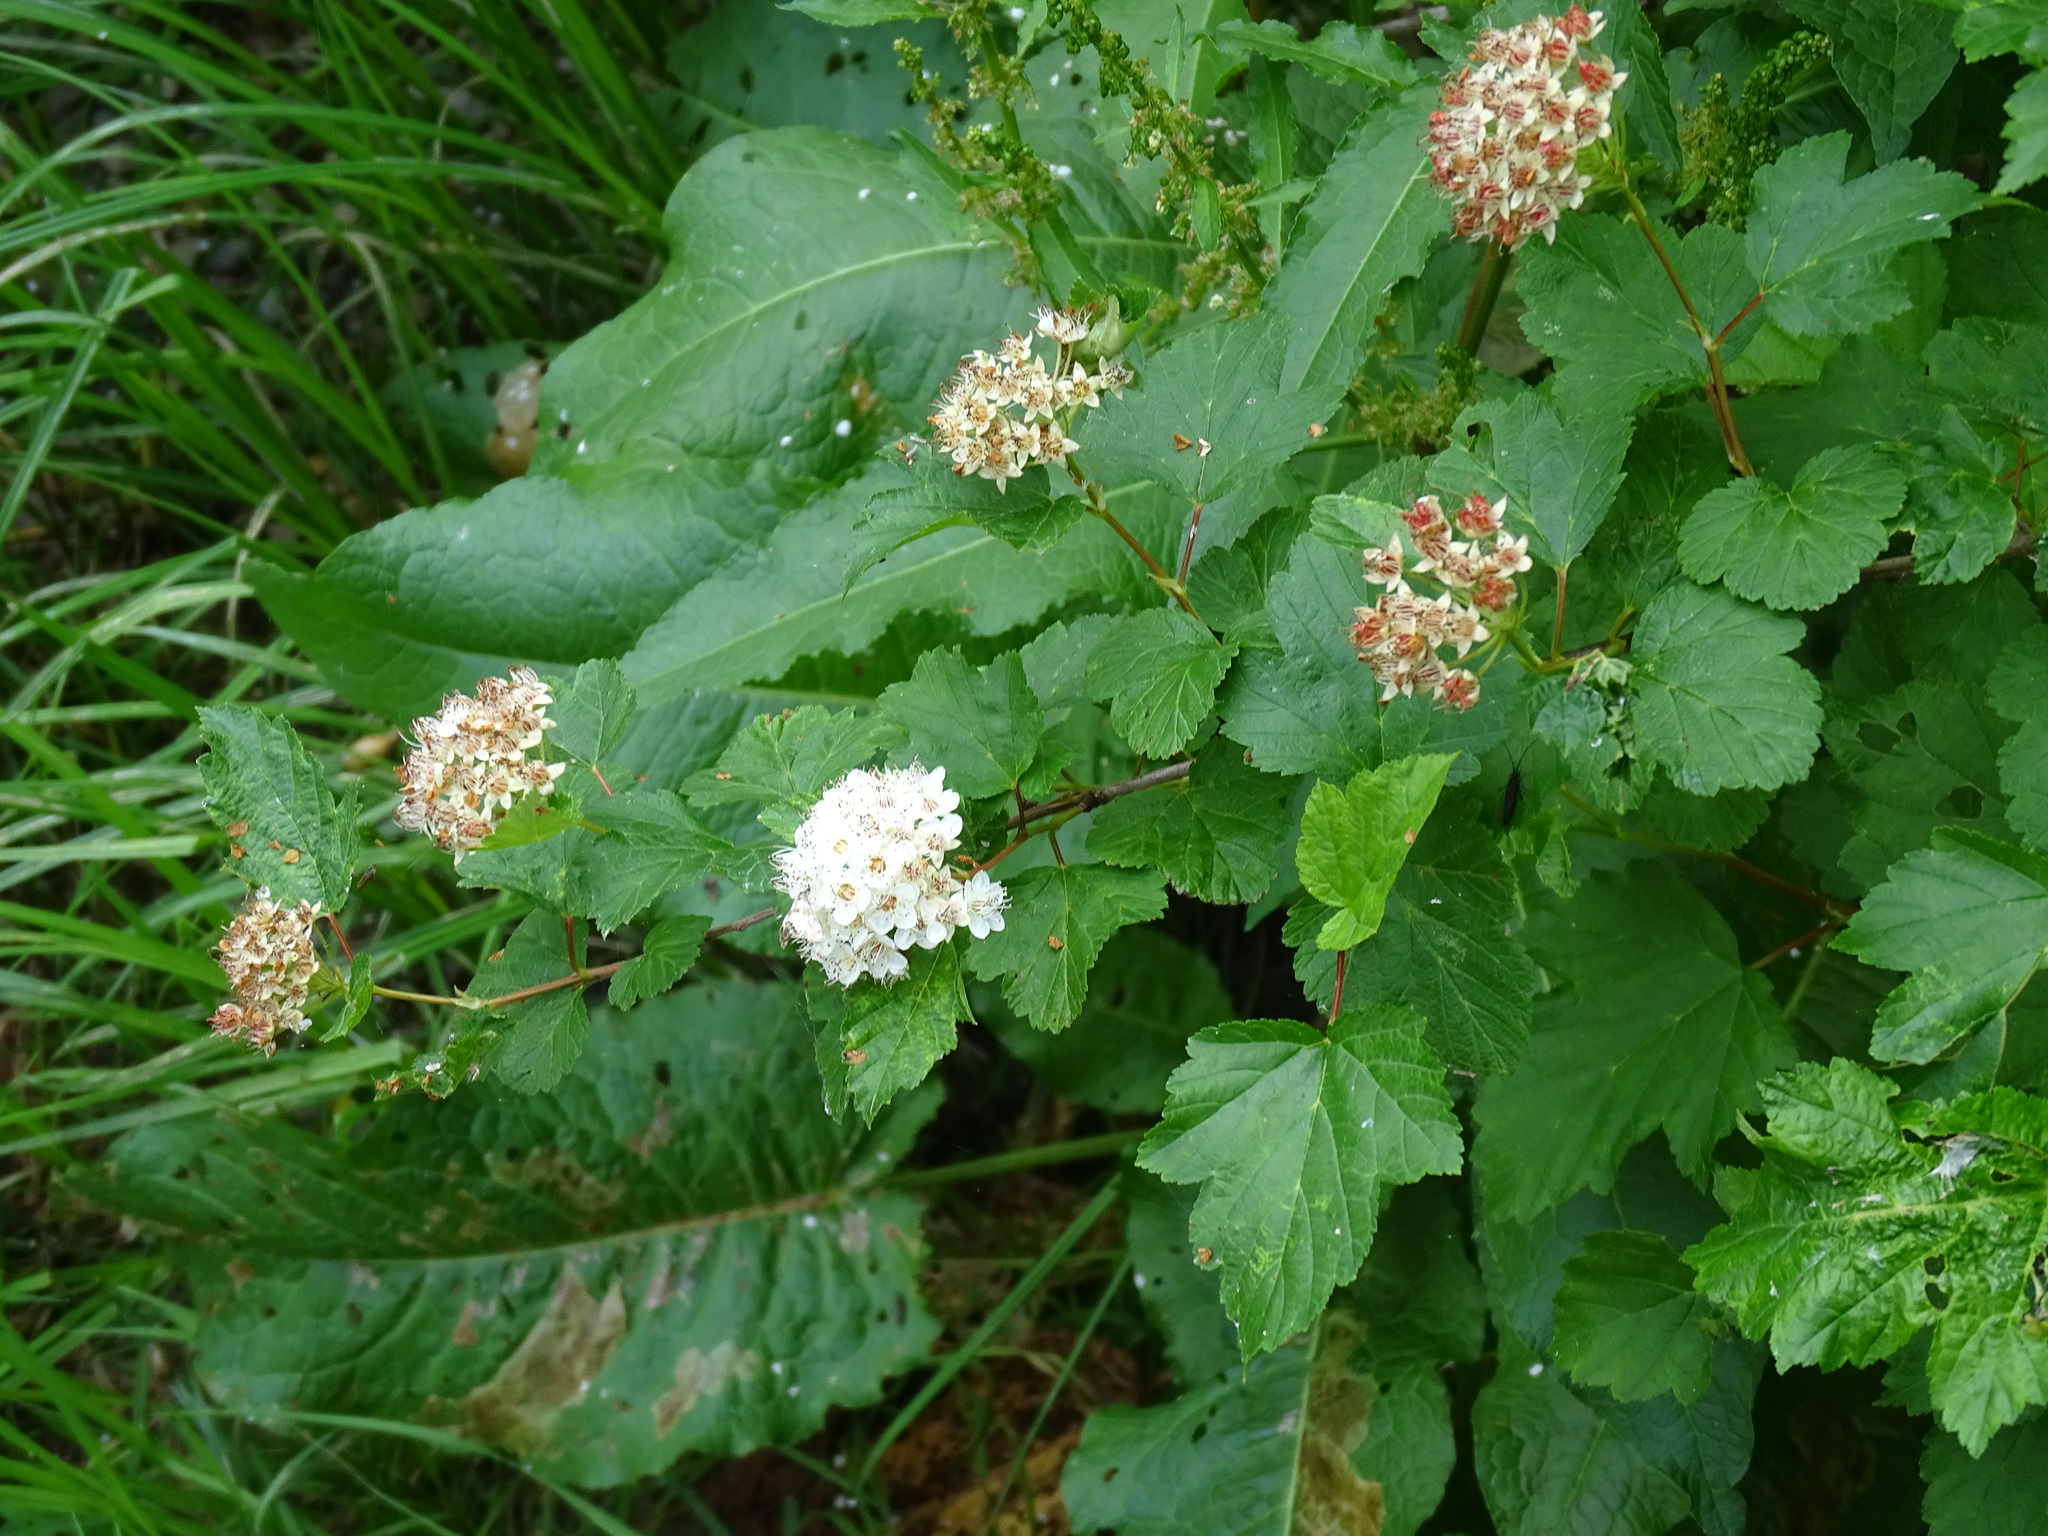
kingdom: Plantae
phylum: Tracheophyta
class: Magnoliopsida
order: Rosales
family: Rosaceae
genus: Physocarpus
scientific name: Physocarpus opulifolius
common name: Ninebark
